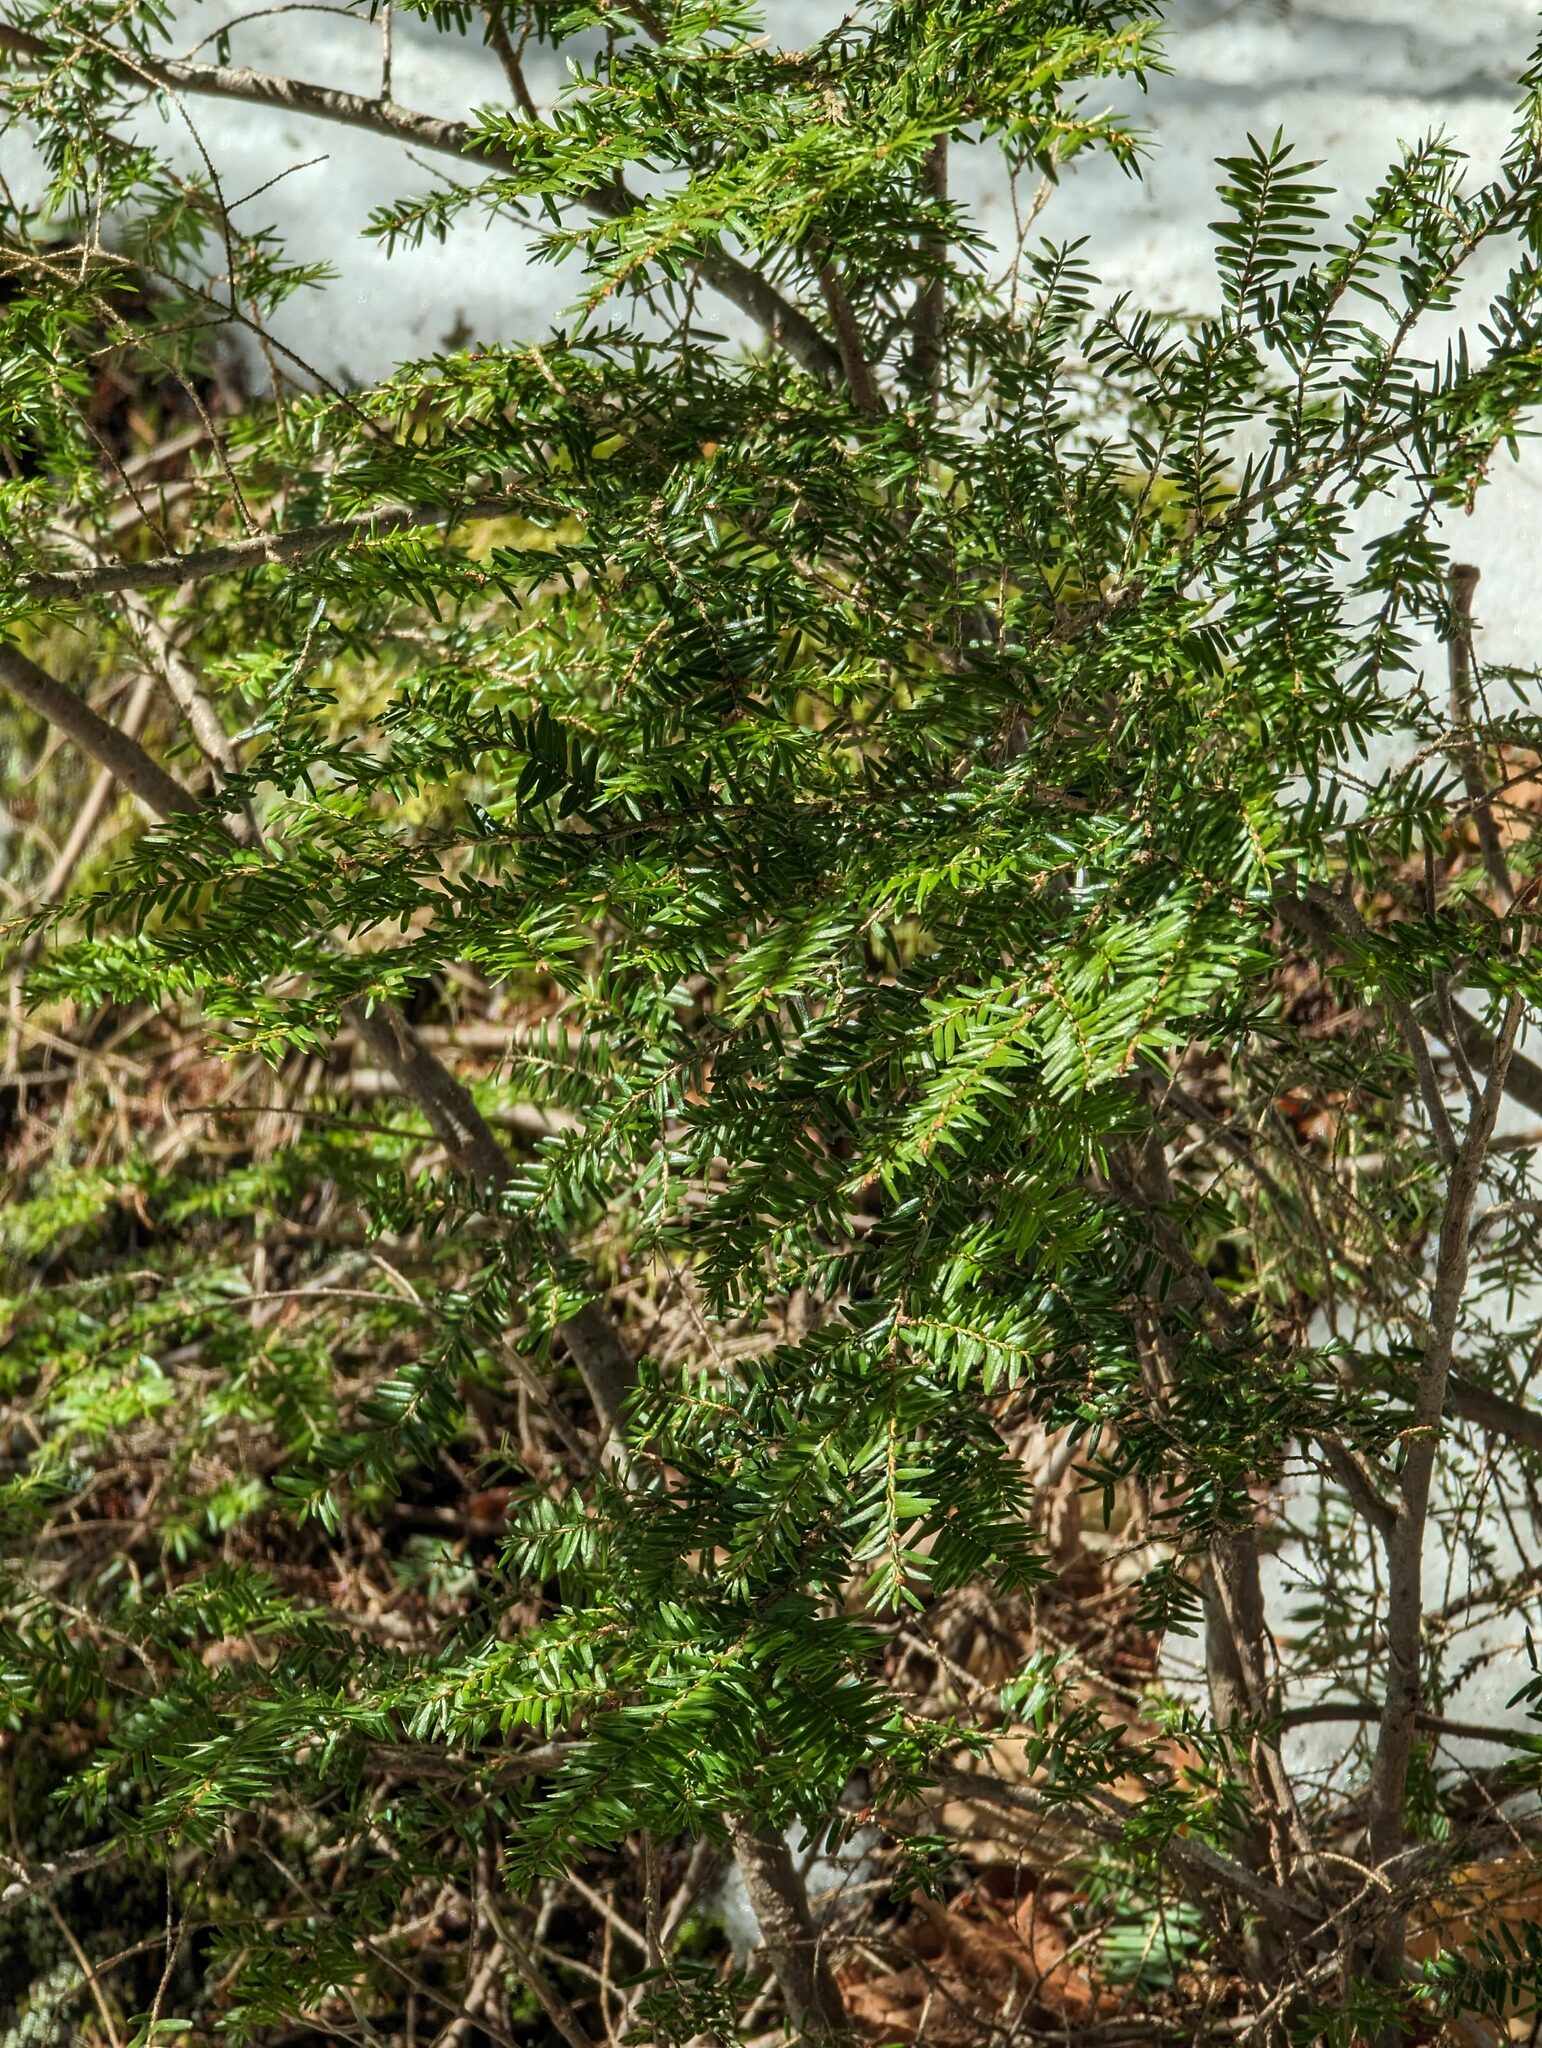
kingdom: Plantae
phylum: Tracheophyta
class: Pinopsida
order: Pinales
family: Pinaceae
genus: Tsuga
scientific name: Tsuga canadensis
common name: Eastern hemlock
